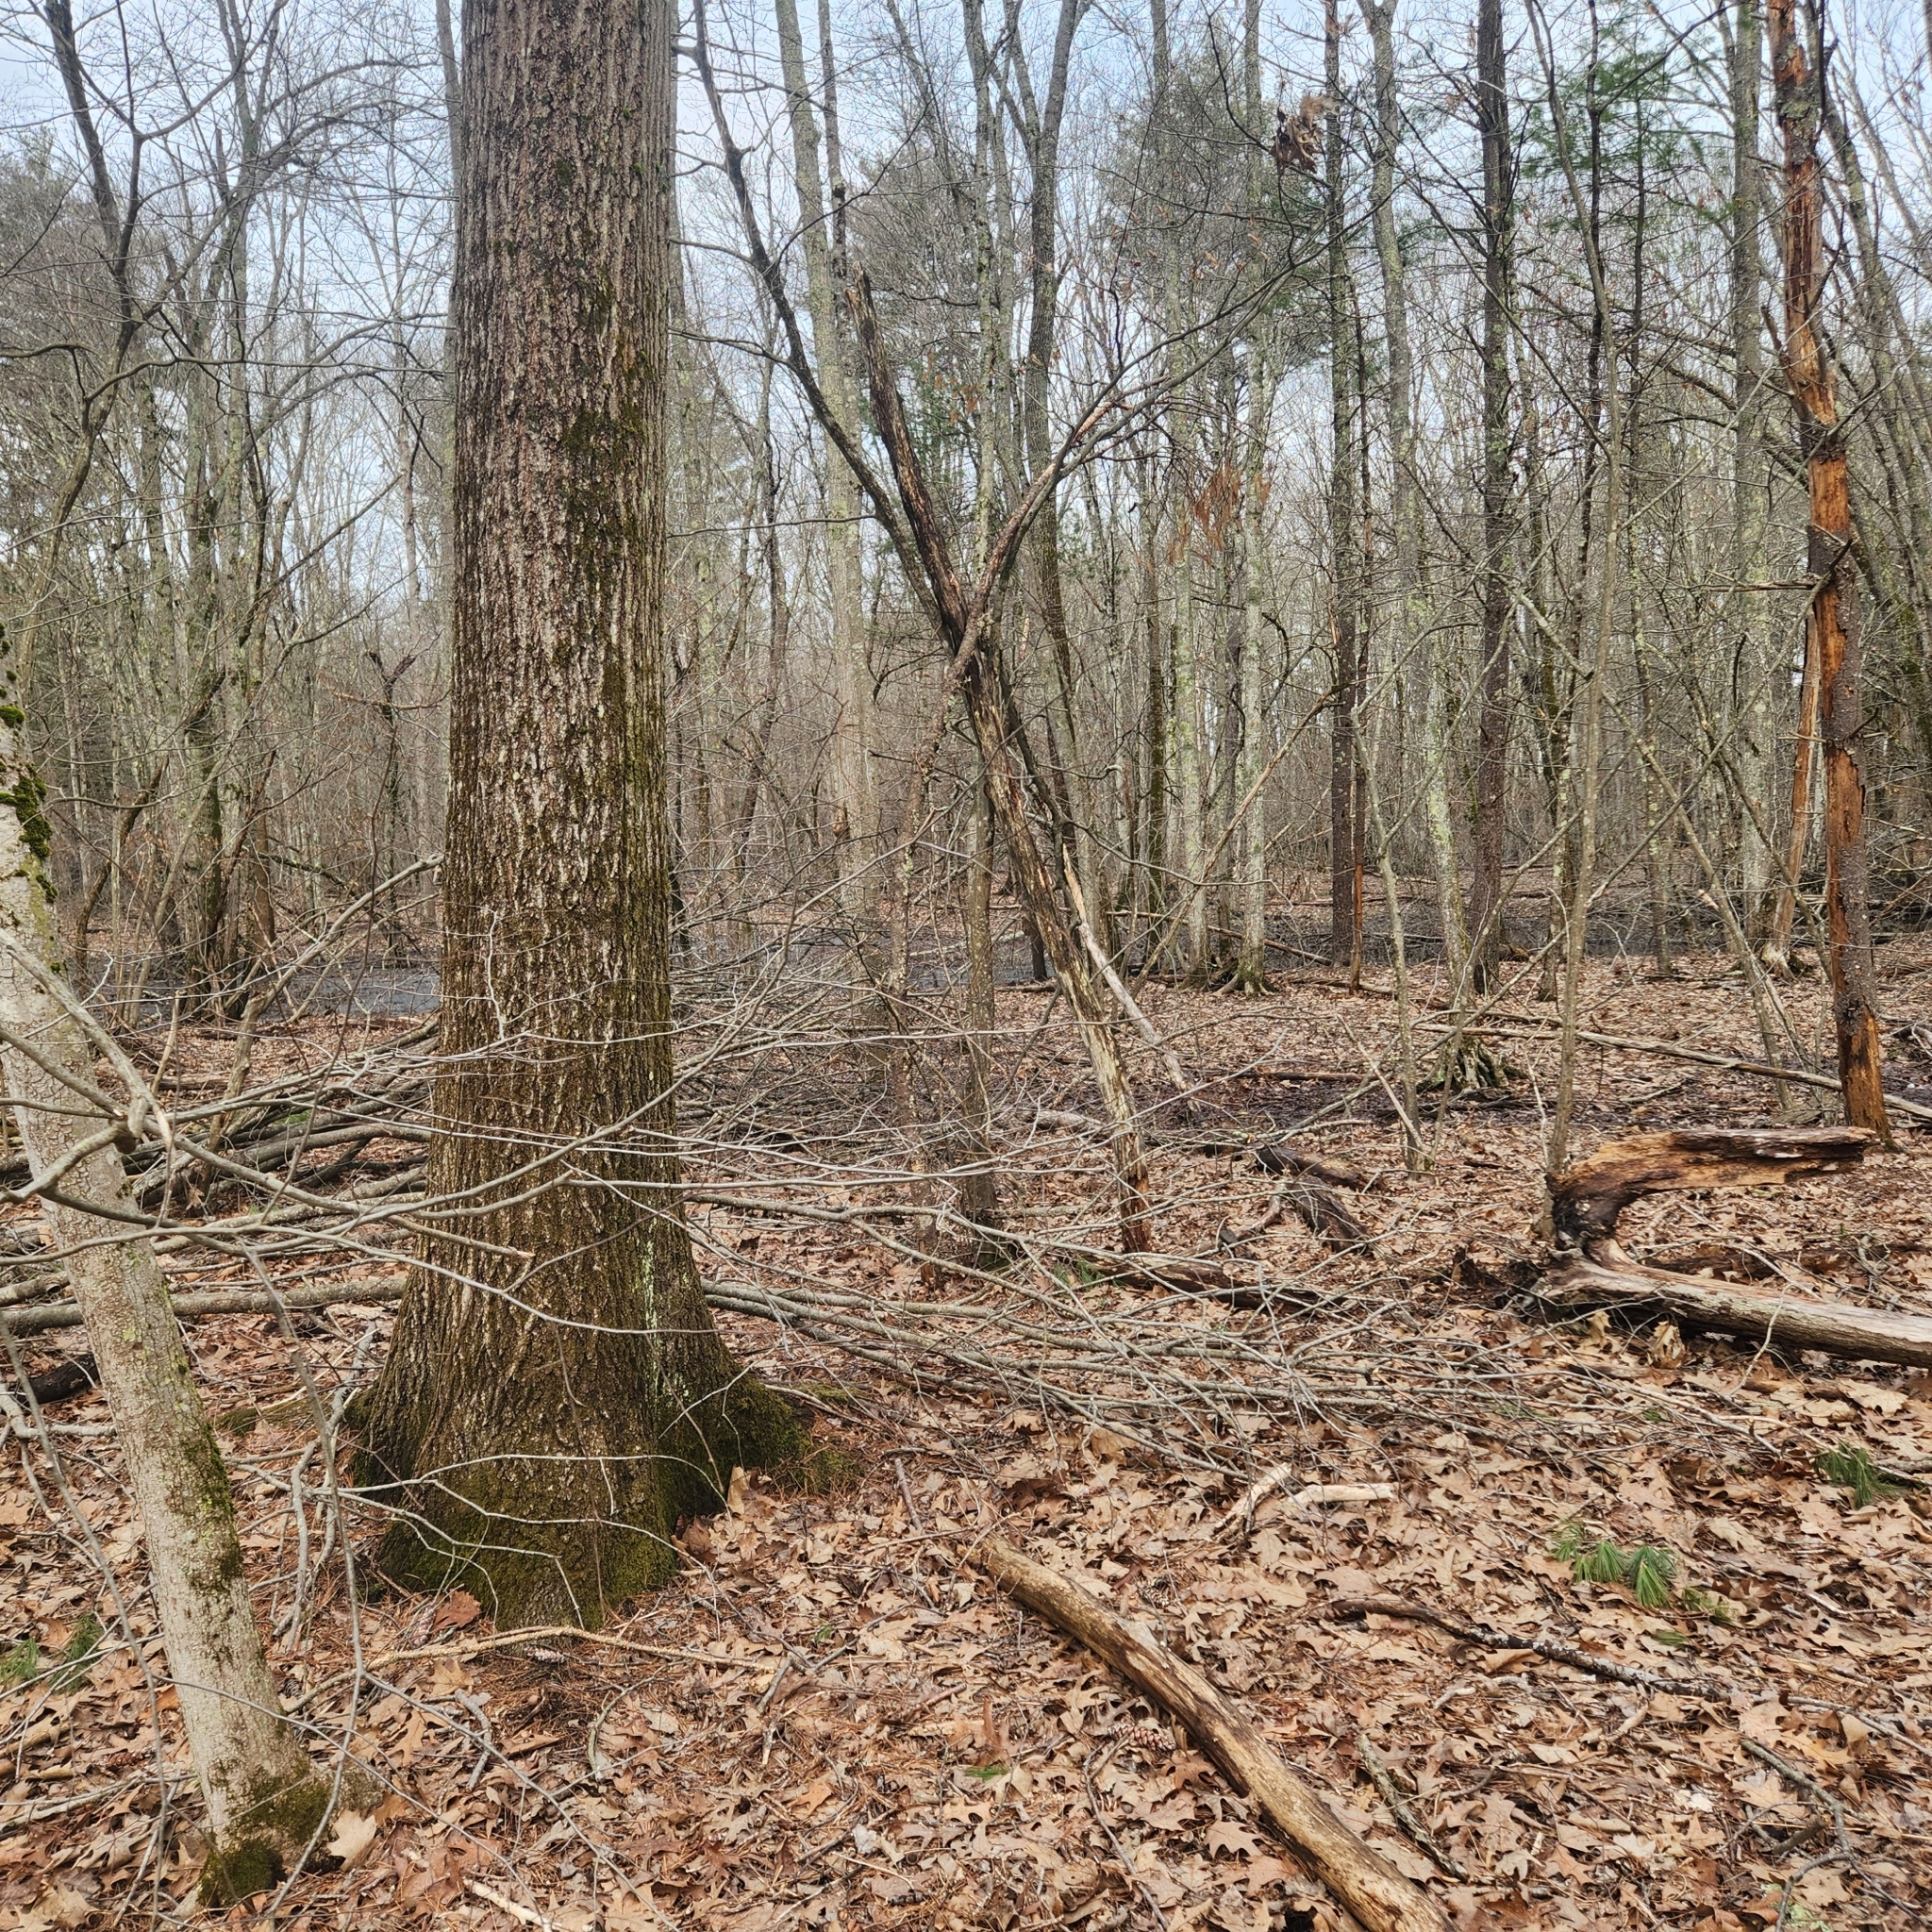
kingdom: Plantae
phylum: Tracheophyta
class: Magnoliopsida
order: Fagales
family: Fagaceae
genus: Quercus
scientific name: Quercus rubra
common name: Red oak
